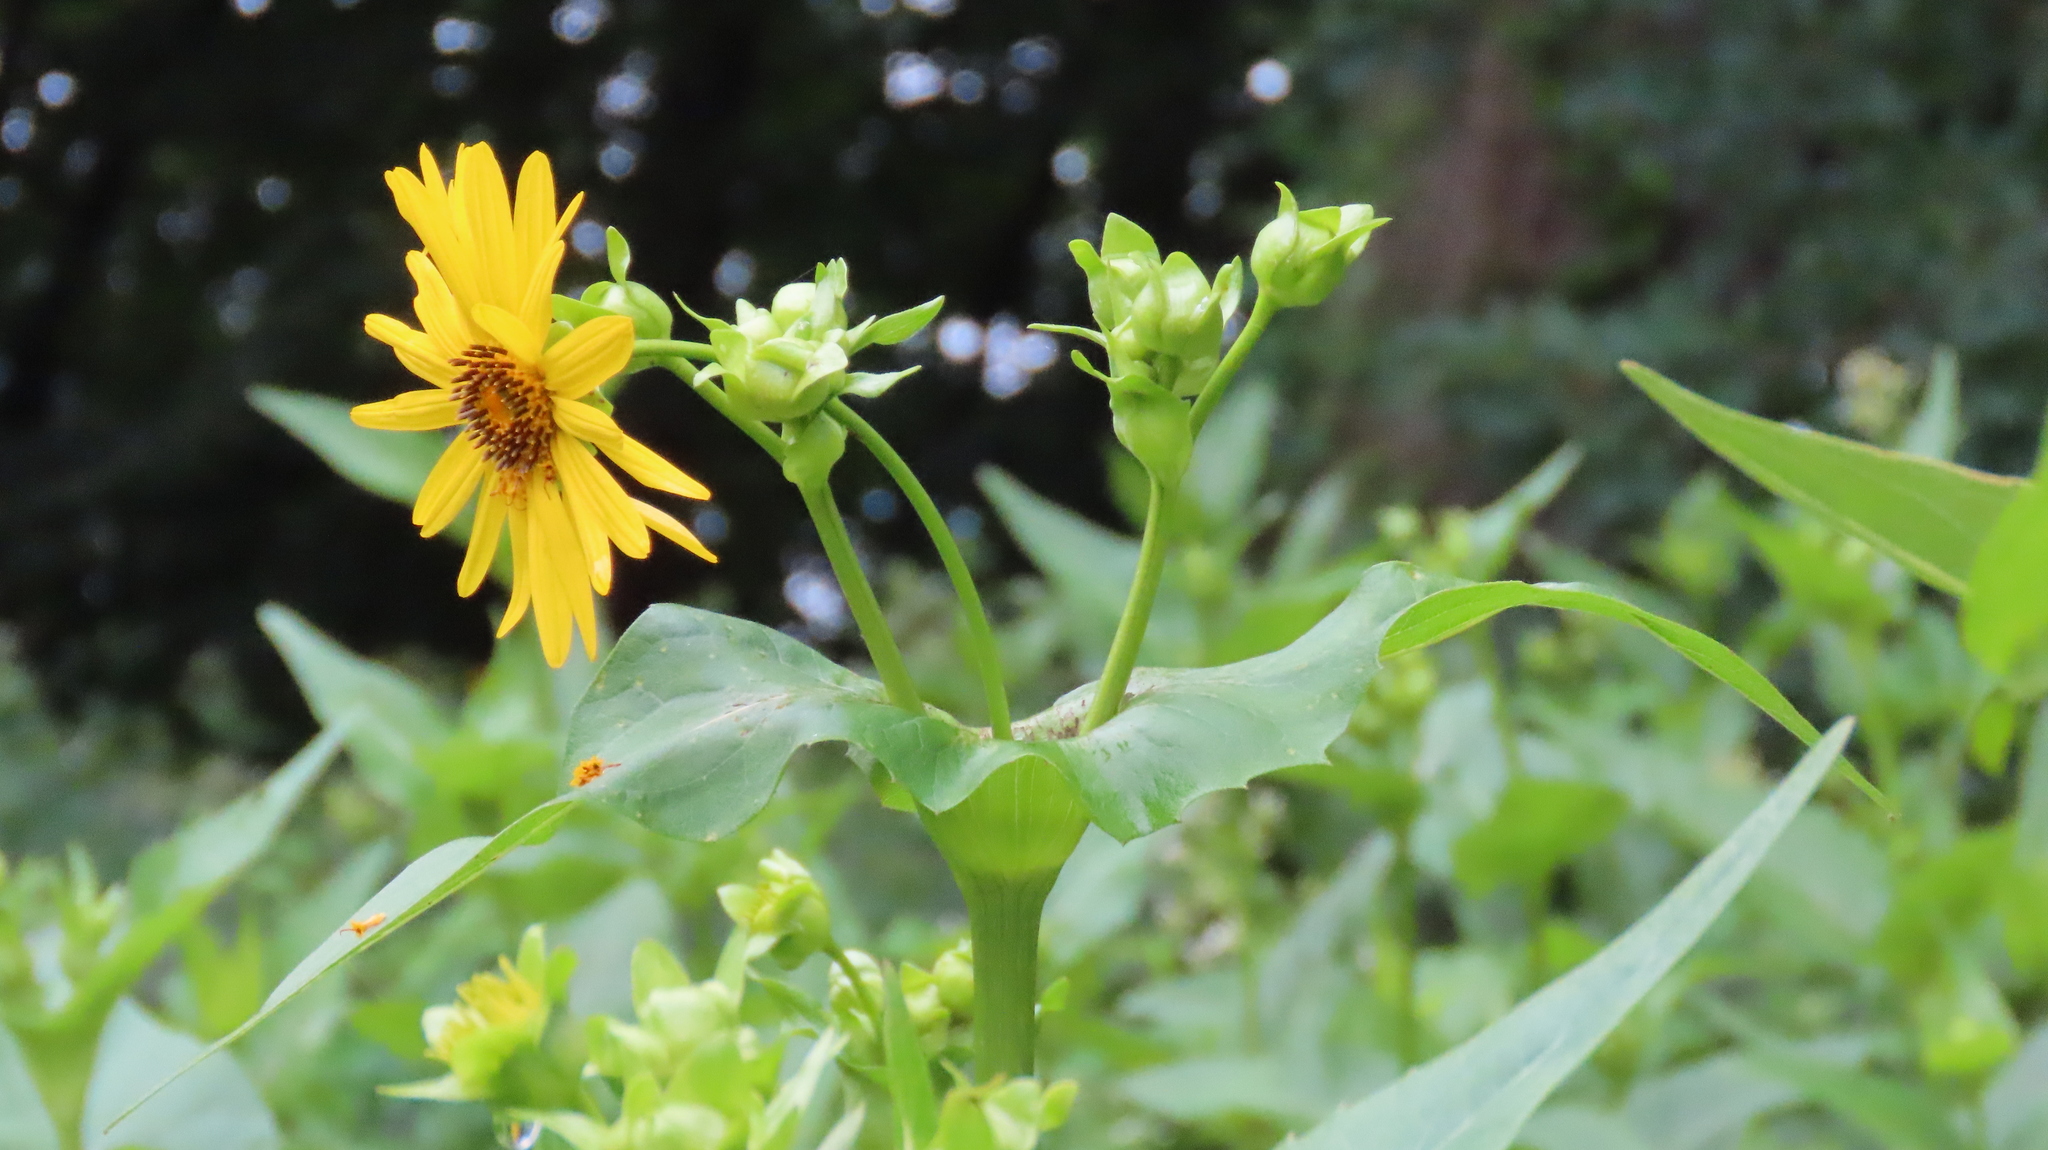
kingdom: Plantae
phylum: Tracheophyta
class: Magnoliopsida
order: Asterales
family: Asteraceae
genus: Silphium
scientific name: Silphium perfoliatum
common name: Cup-plant
